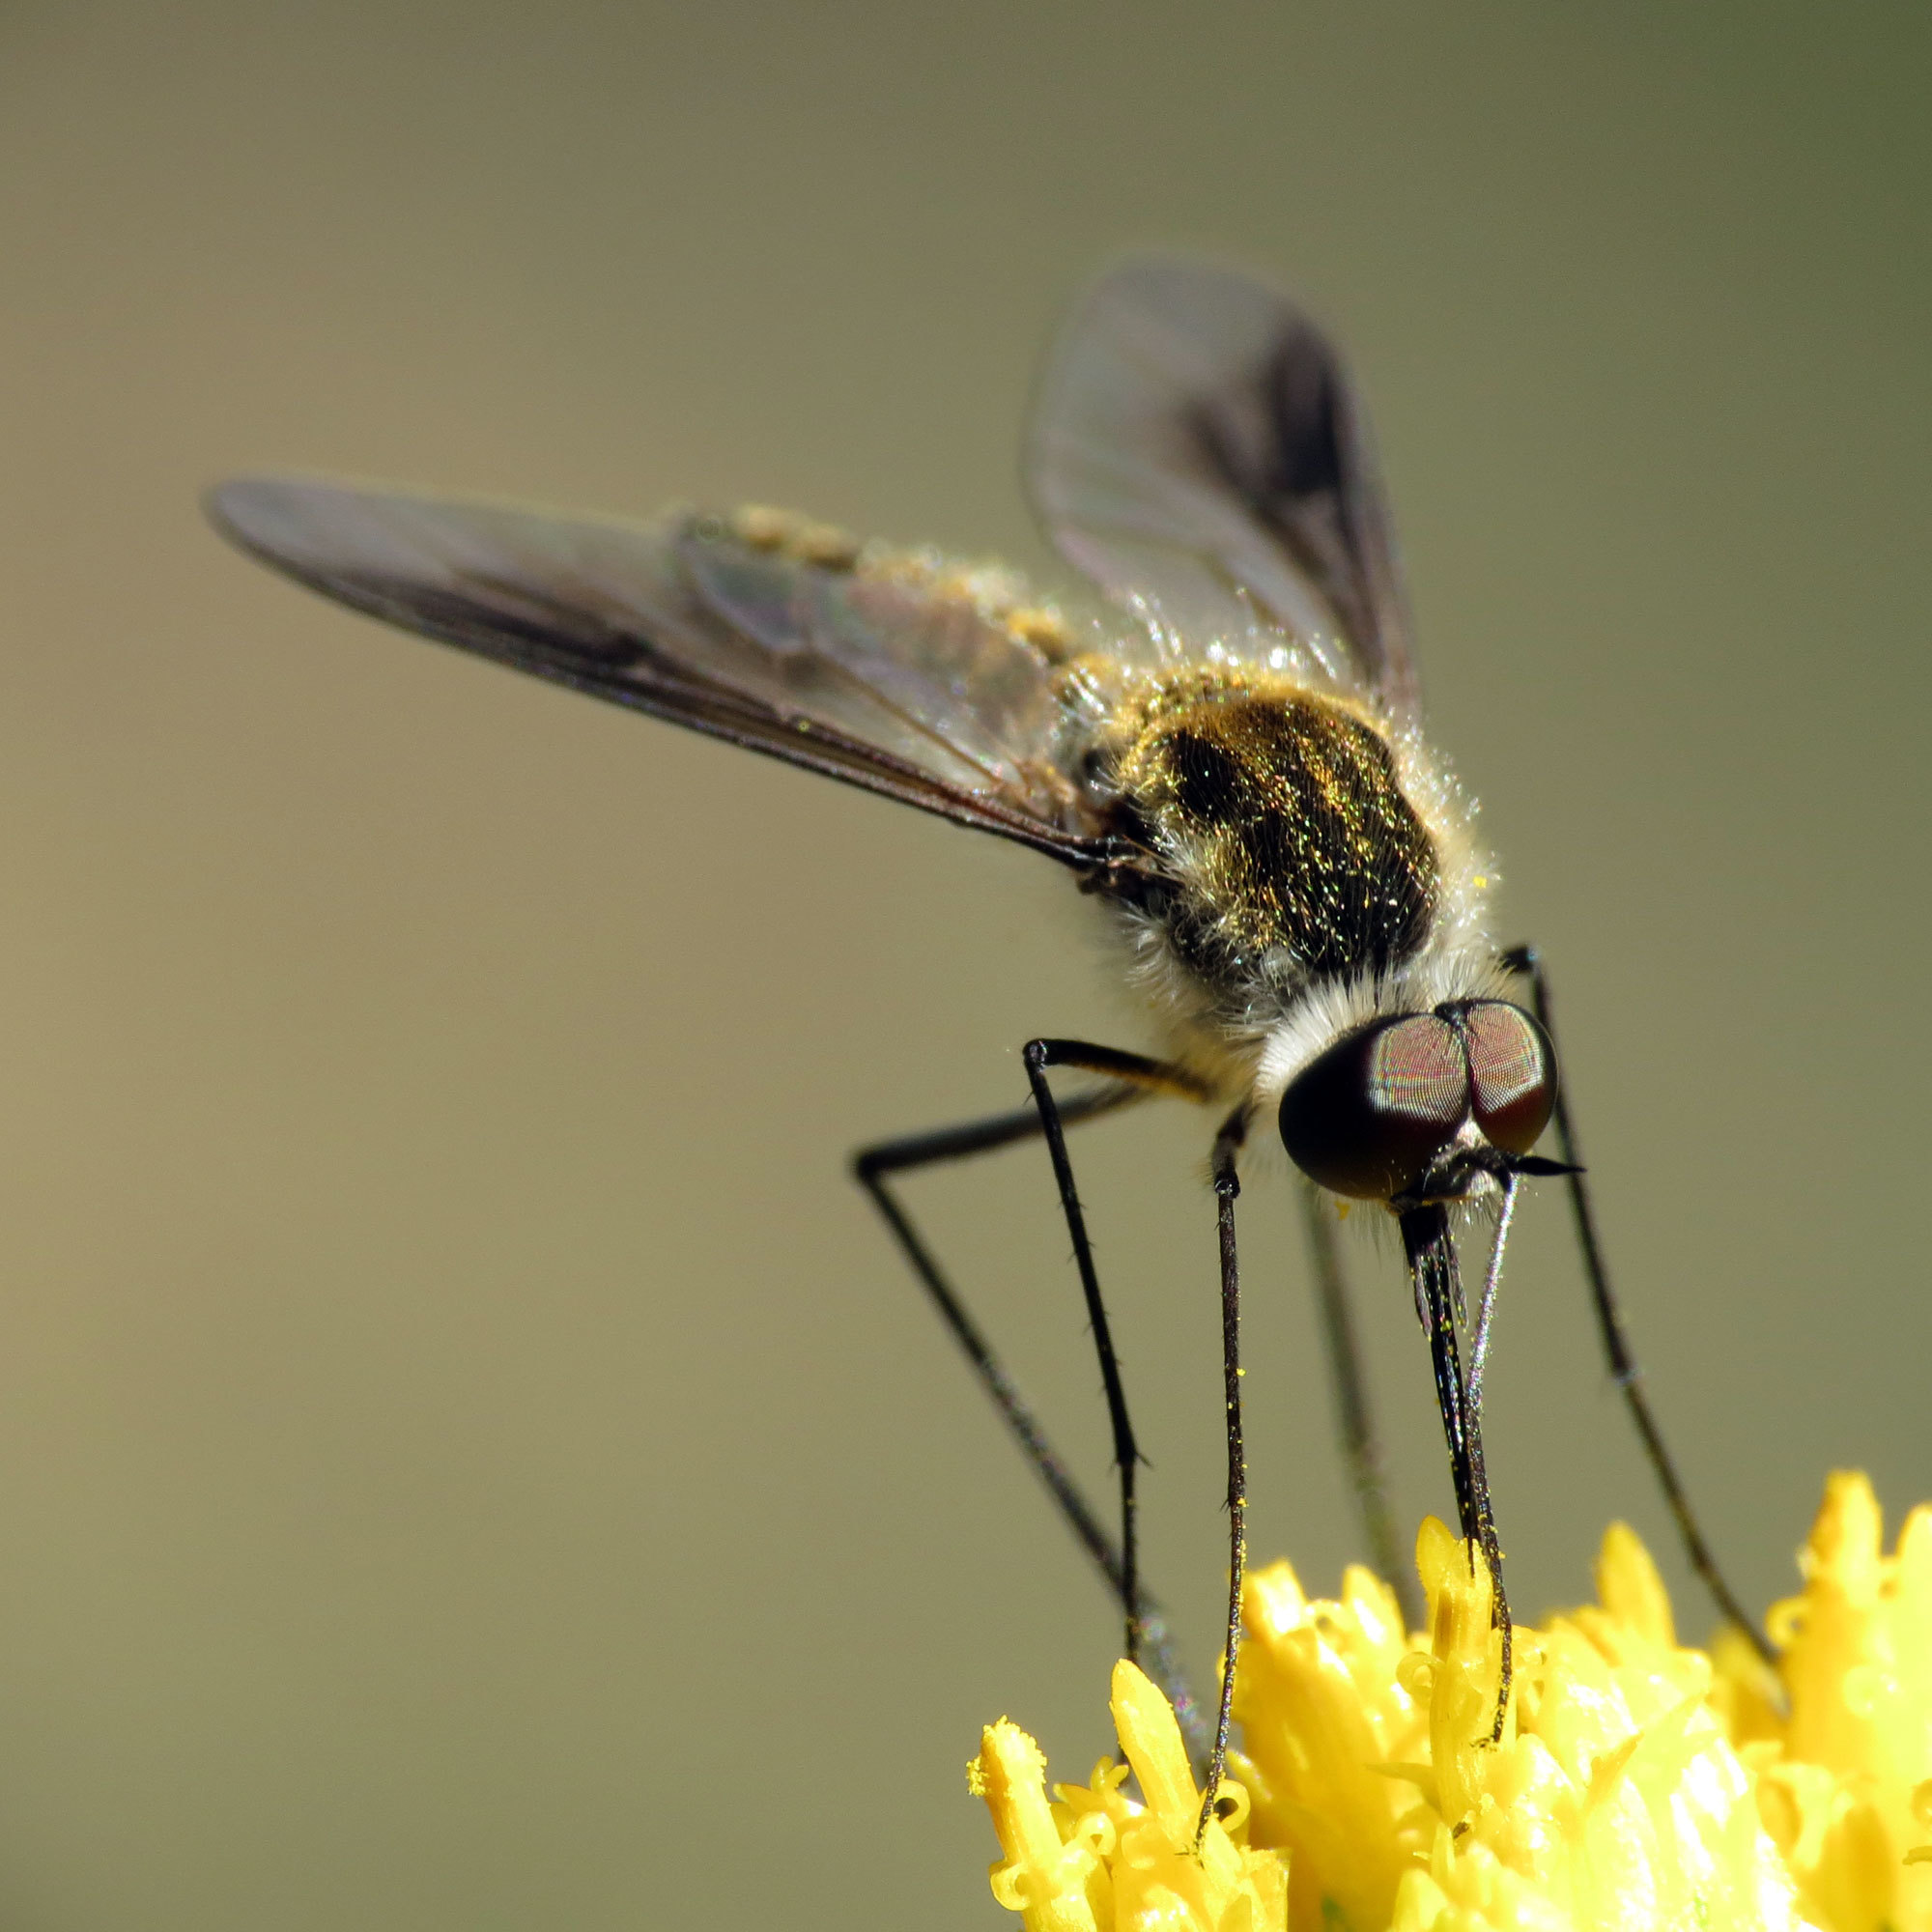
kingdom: Animalia
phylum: Arthropoda
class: Insecta
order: Diptera
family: Bombyliidae
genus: Thevenetimyia
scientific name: Thevenetimyia speciosa
